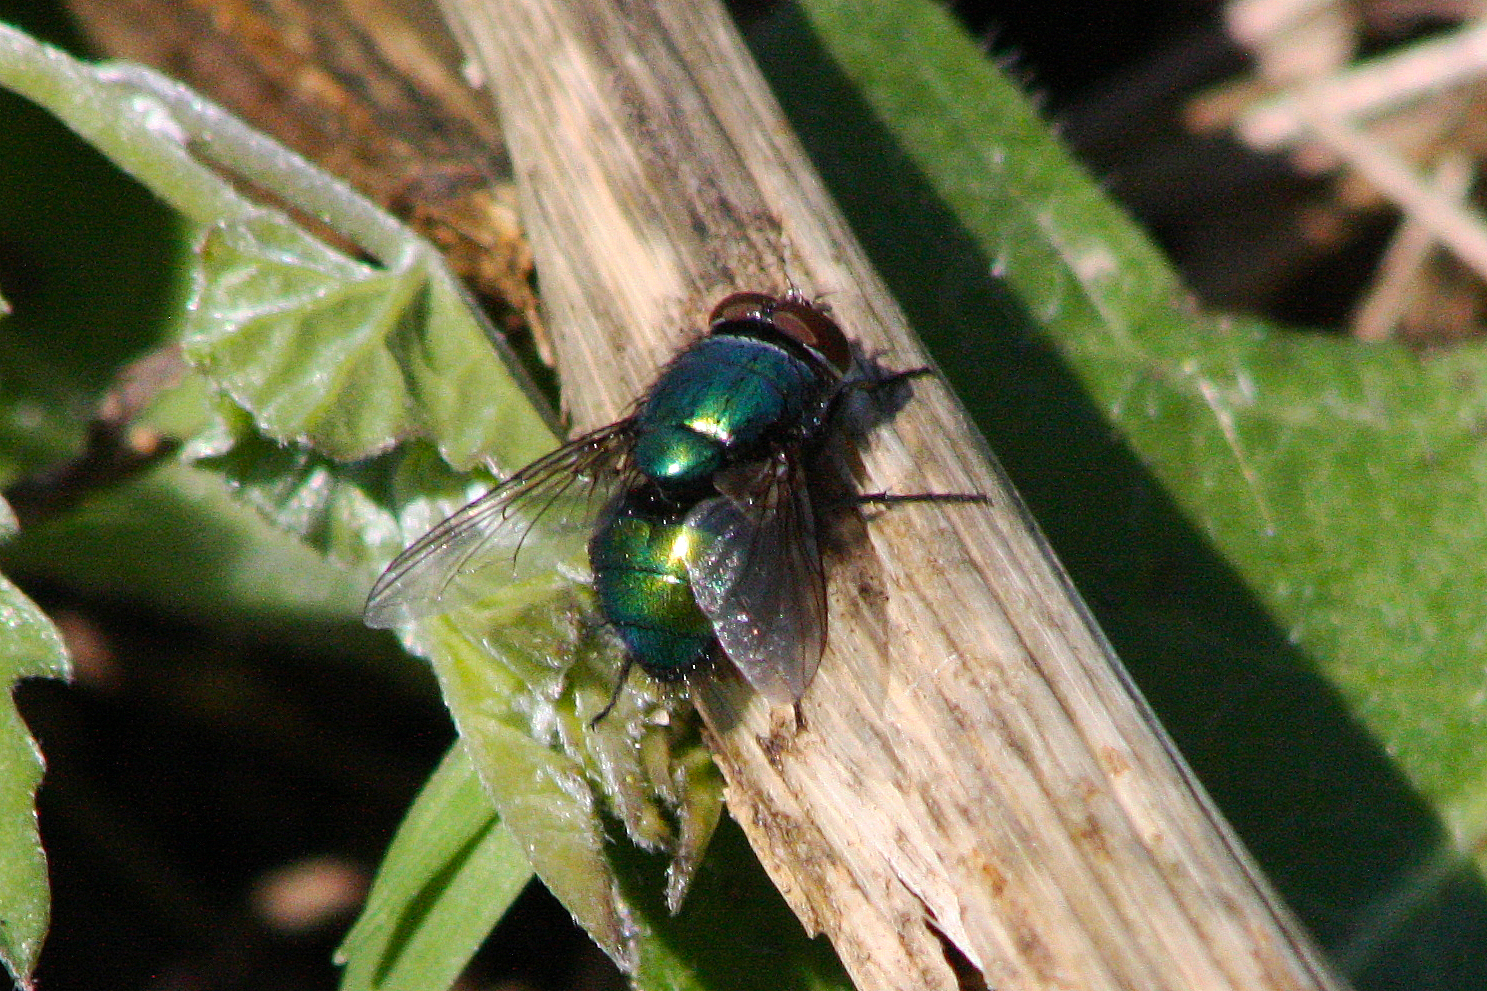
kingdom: Animalia
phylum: Arthropoda
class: Insecta
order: Diptera
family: Calliphoridae
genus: Lucilia
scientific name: Lucilia
